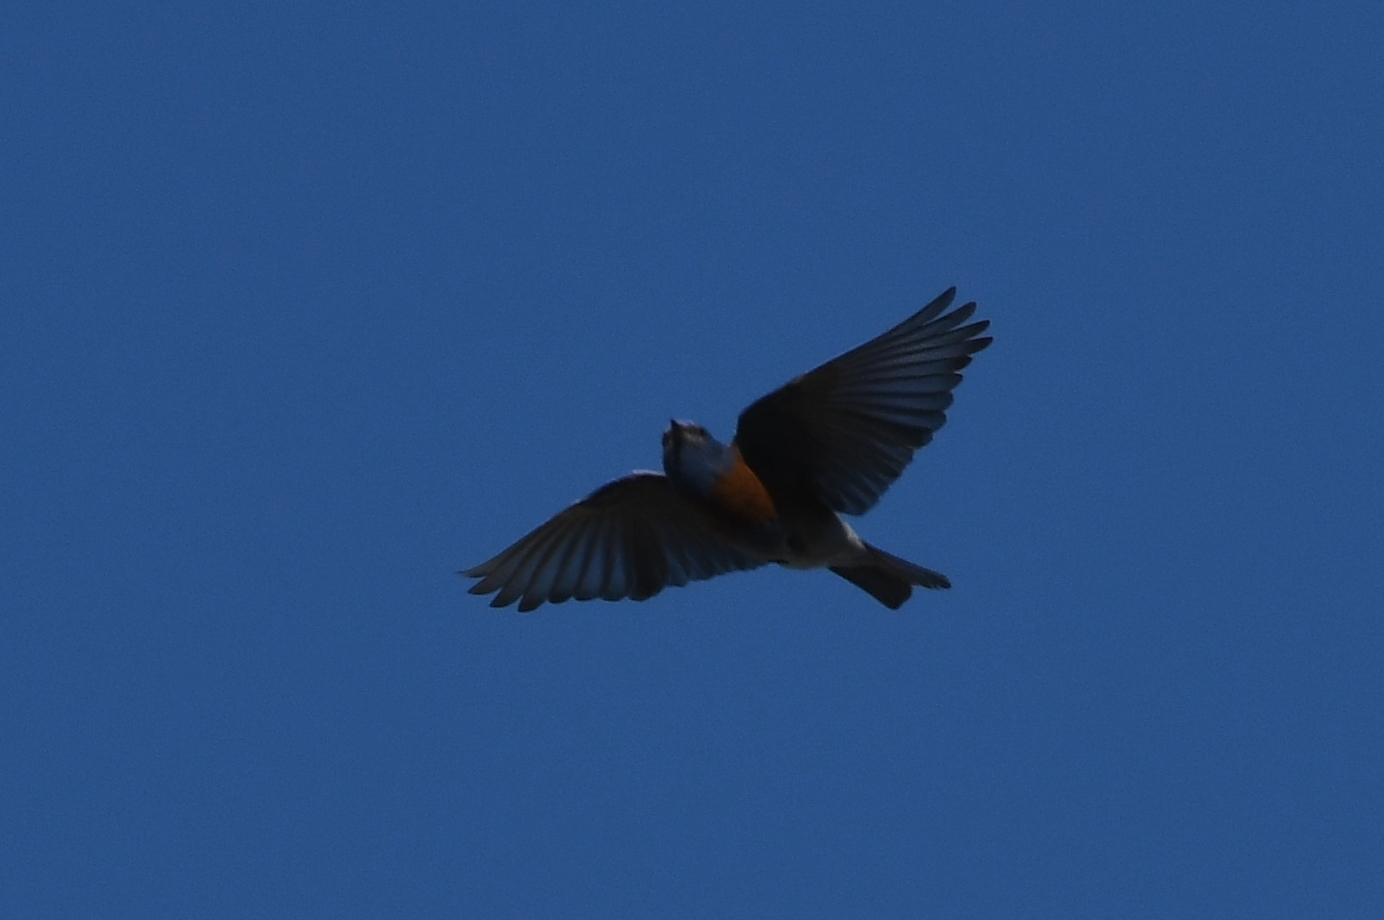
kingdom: Animalia
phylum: Chordata
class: Aves
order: Passeriformes
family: Turdidae
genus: Sialia
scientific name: Sialia mexicana
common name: Western bluebird
